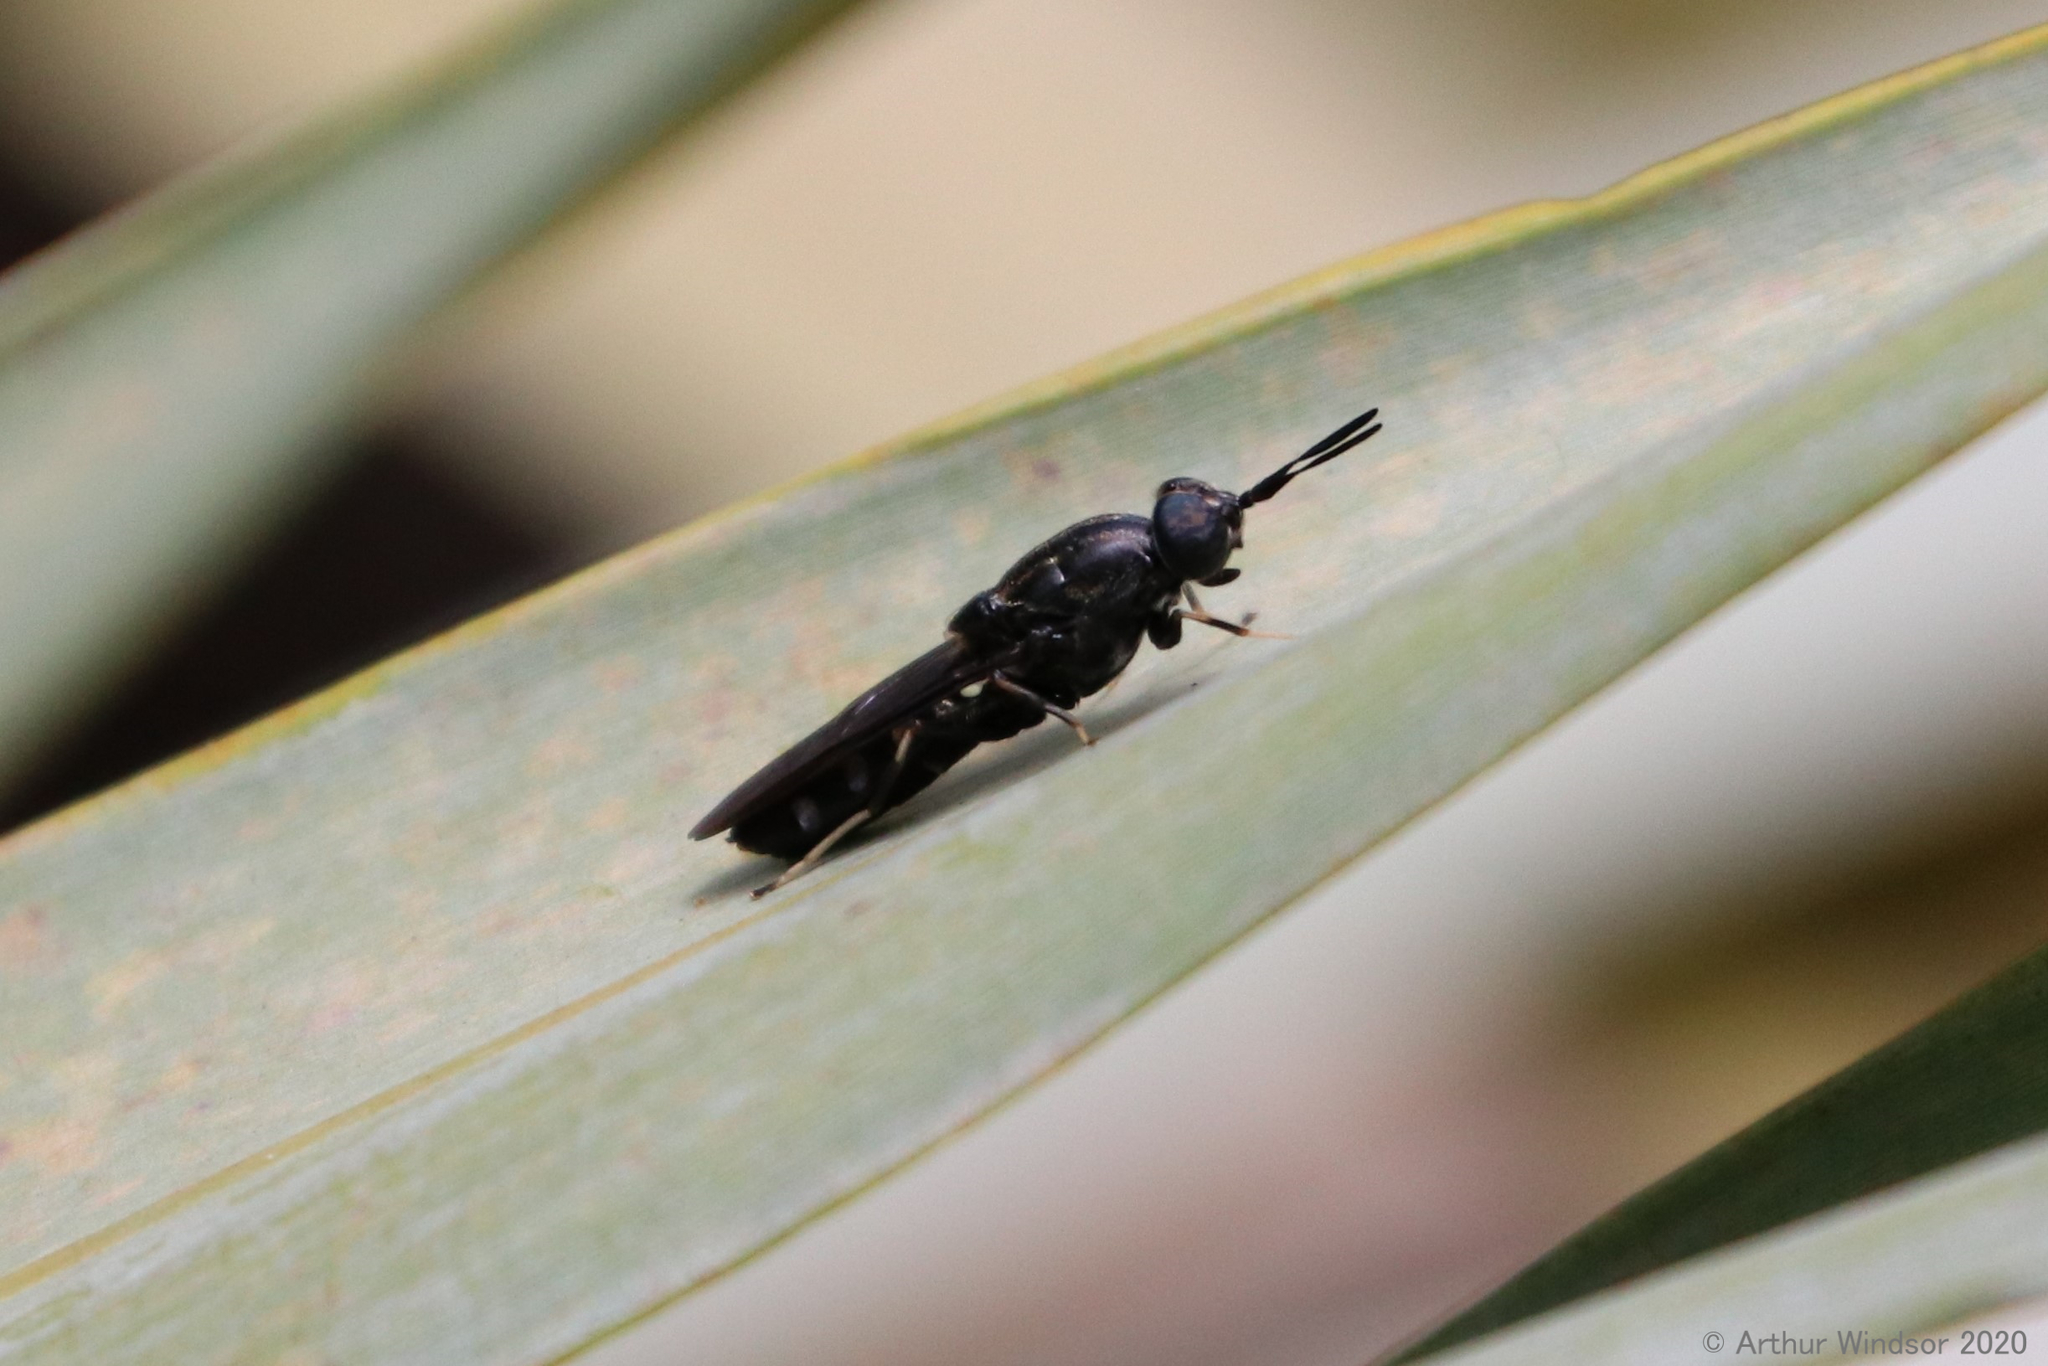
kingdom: Animalia
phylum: Arthropoda
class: Insecta
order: Diptera
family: Stratiomyidae
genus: Hermetia
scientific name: Hermetia sexmaculata
